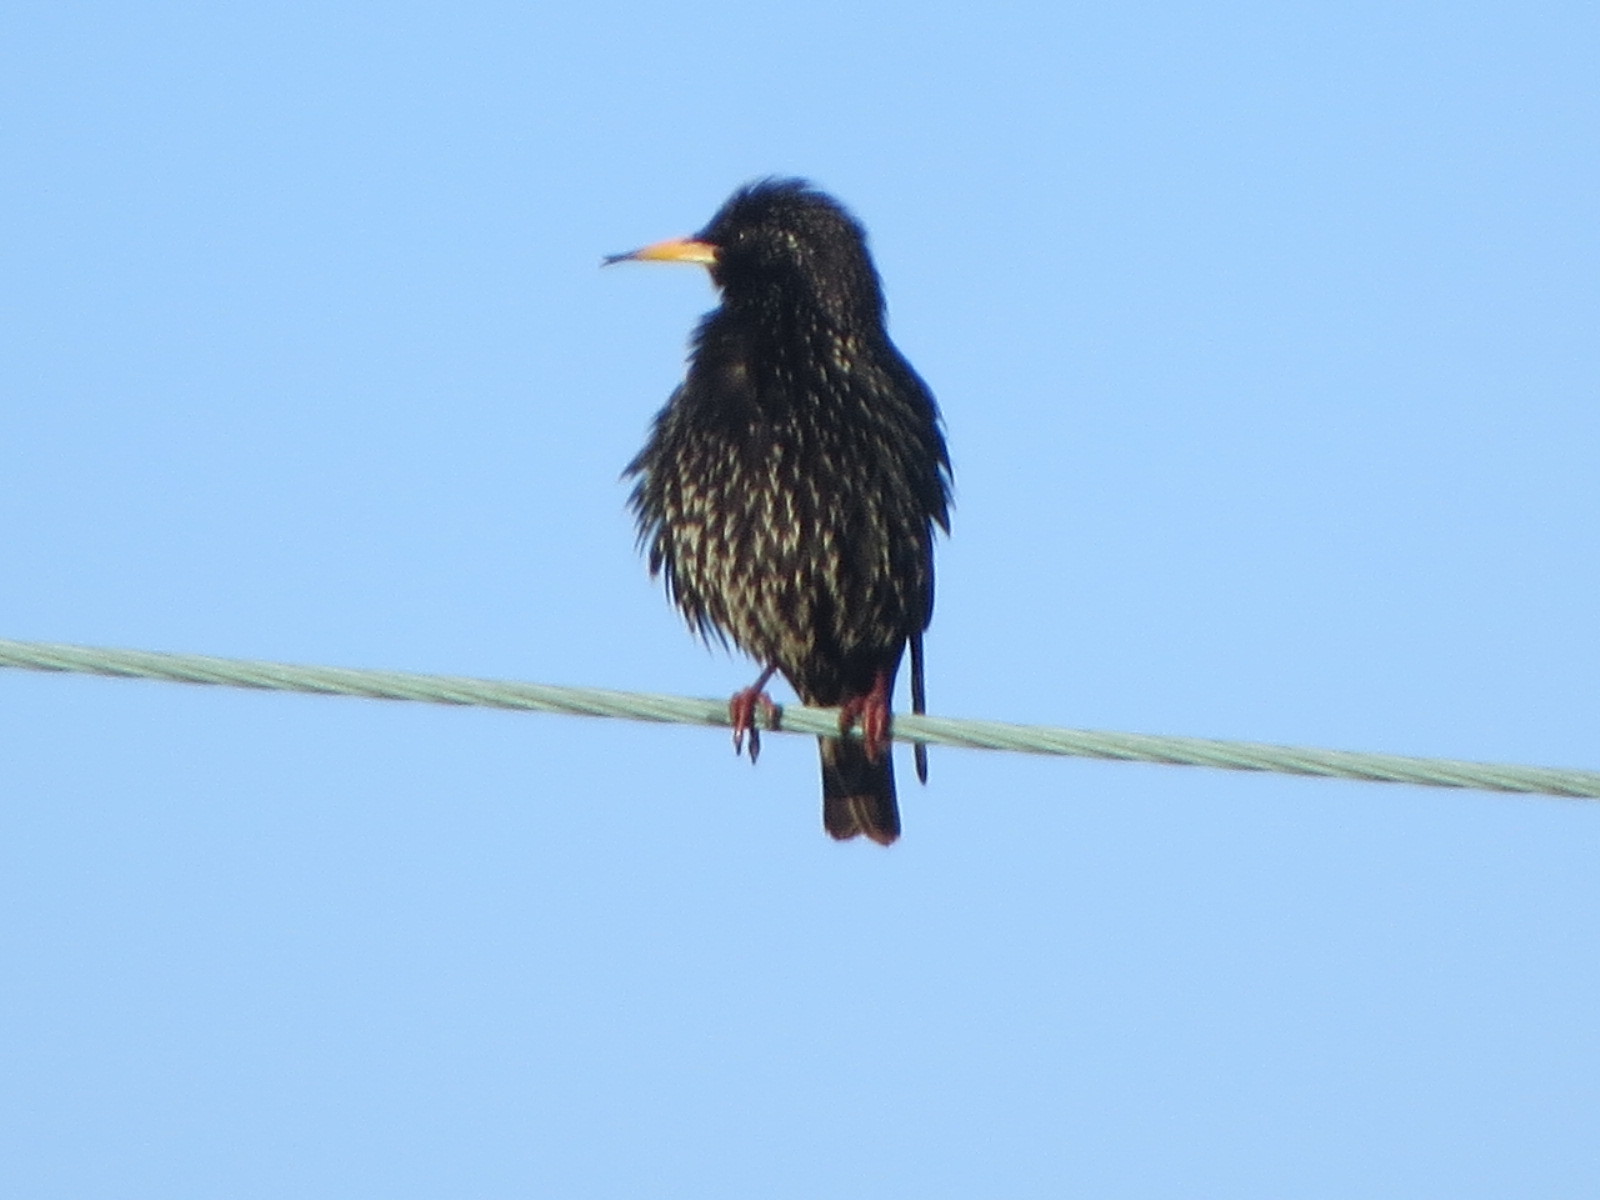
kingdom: Animalia
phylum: Chordata
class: Aves
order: Passeriformes
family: Sturnidae
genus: Sturnus
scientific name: Sturnus vulgaris
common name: Common starling
